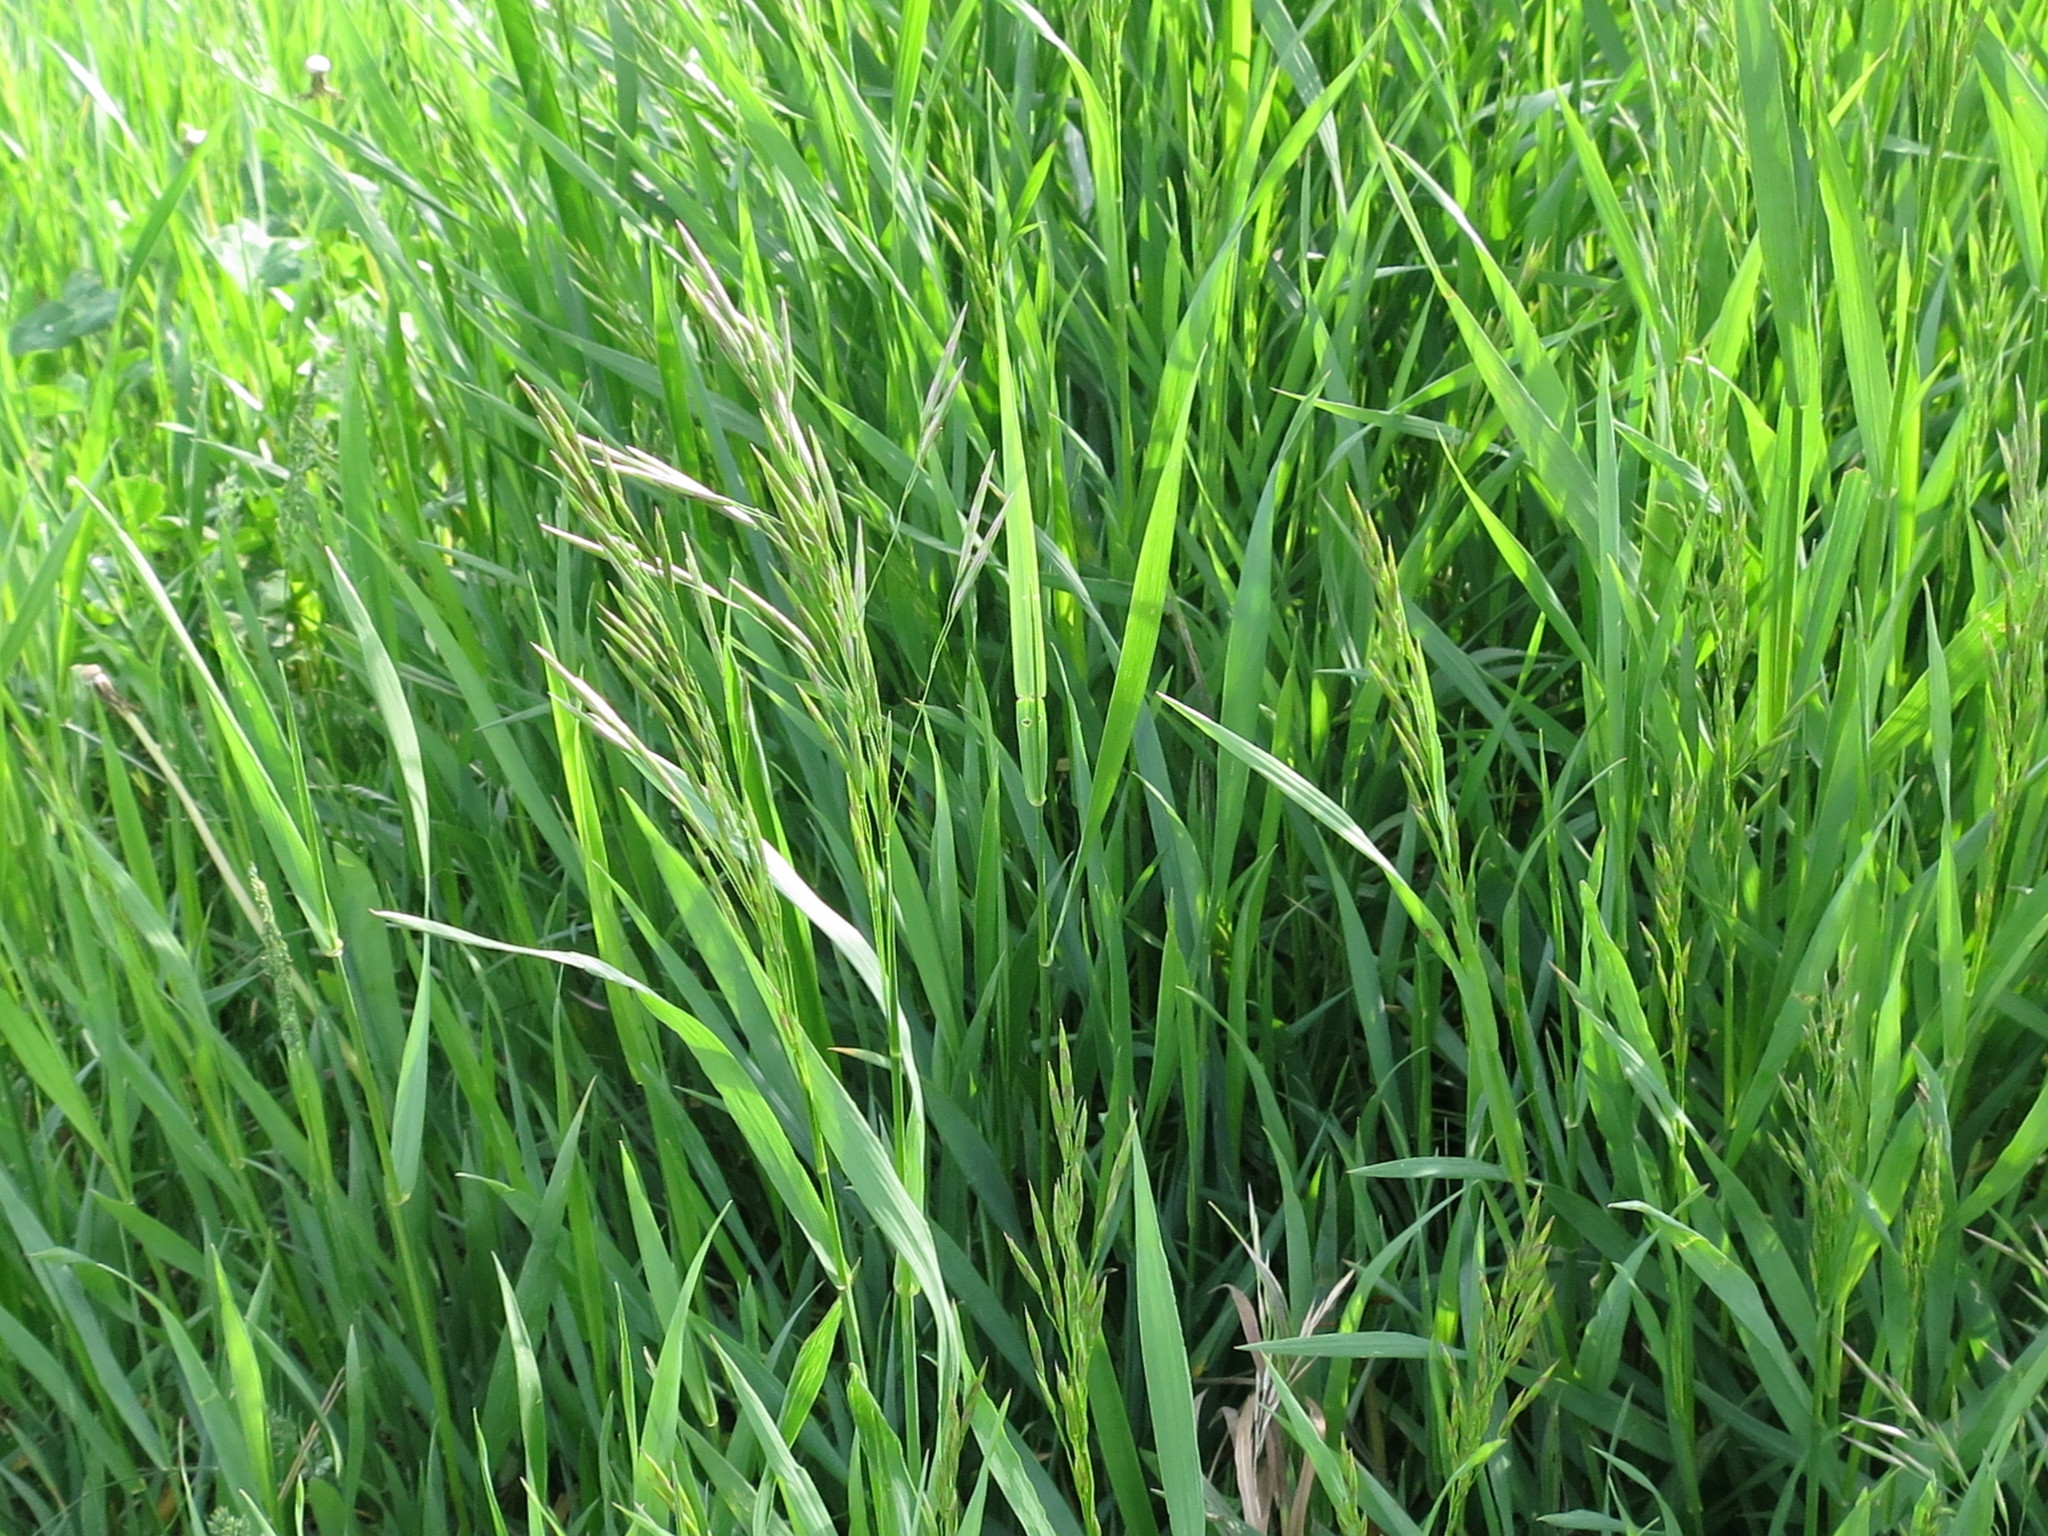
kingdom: Plantae
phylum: Tracheophyta
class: Liliopsida
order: Poales
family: Poaceae
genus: Bromus
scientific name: Bromus inermis
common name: Smooth brome
